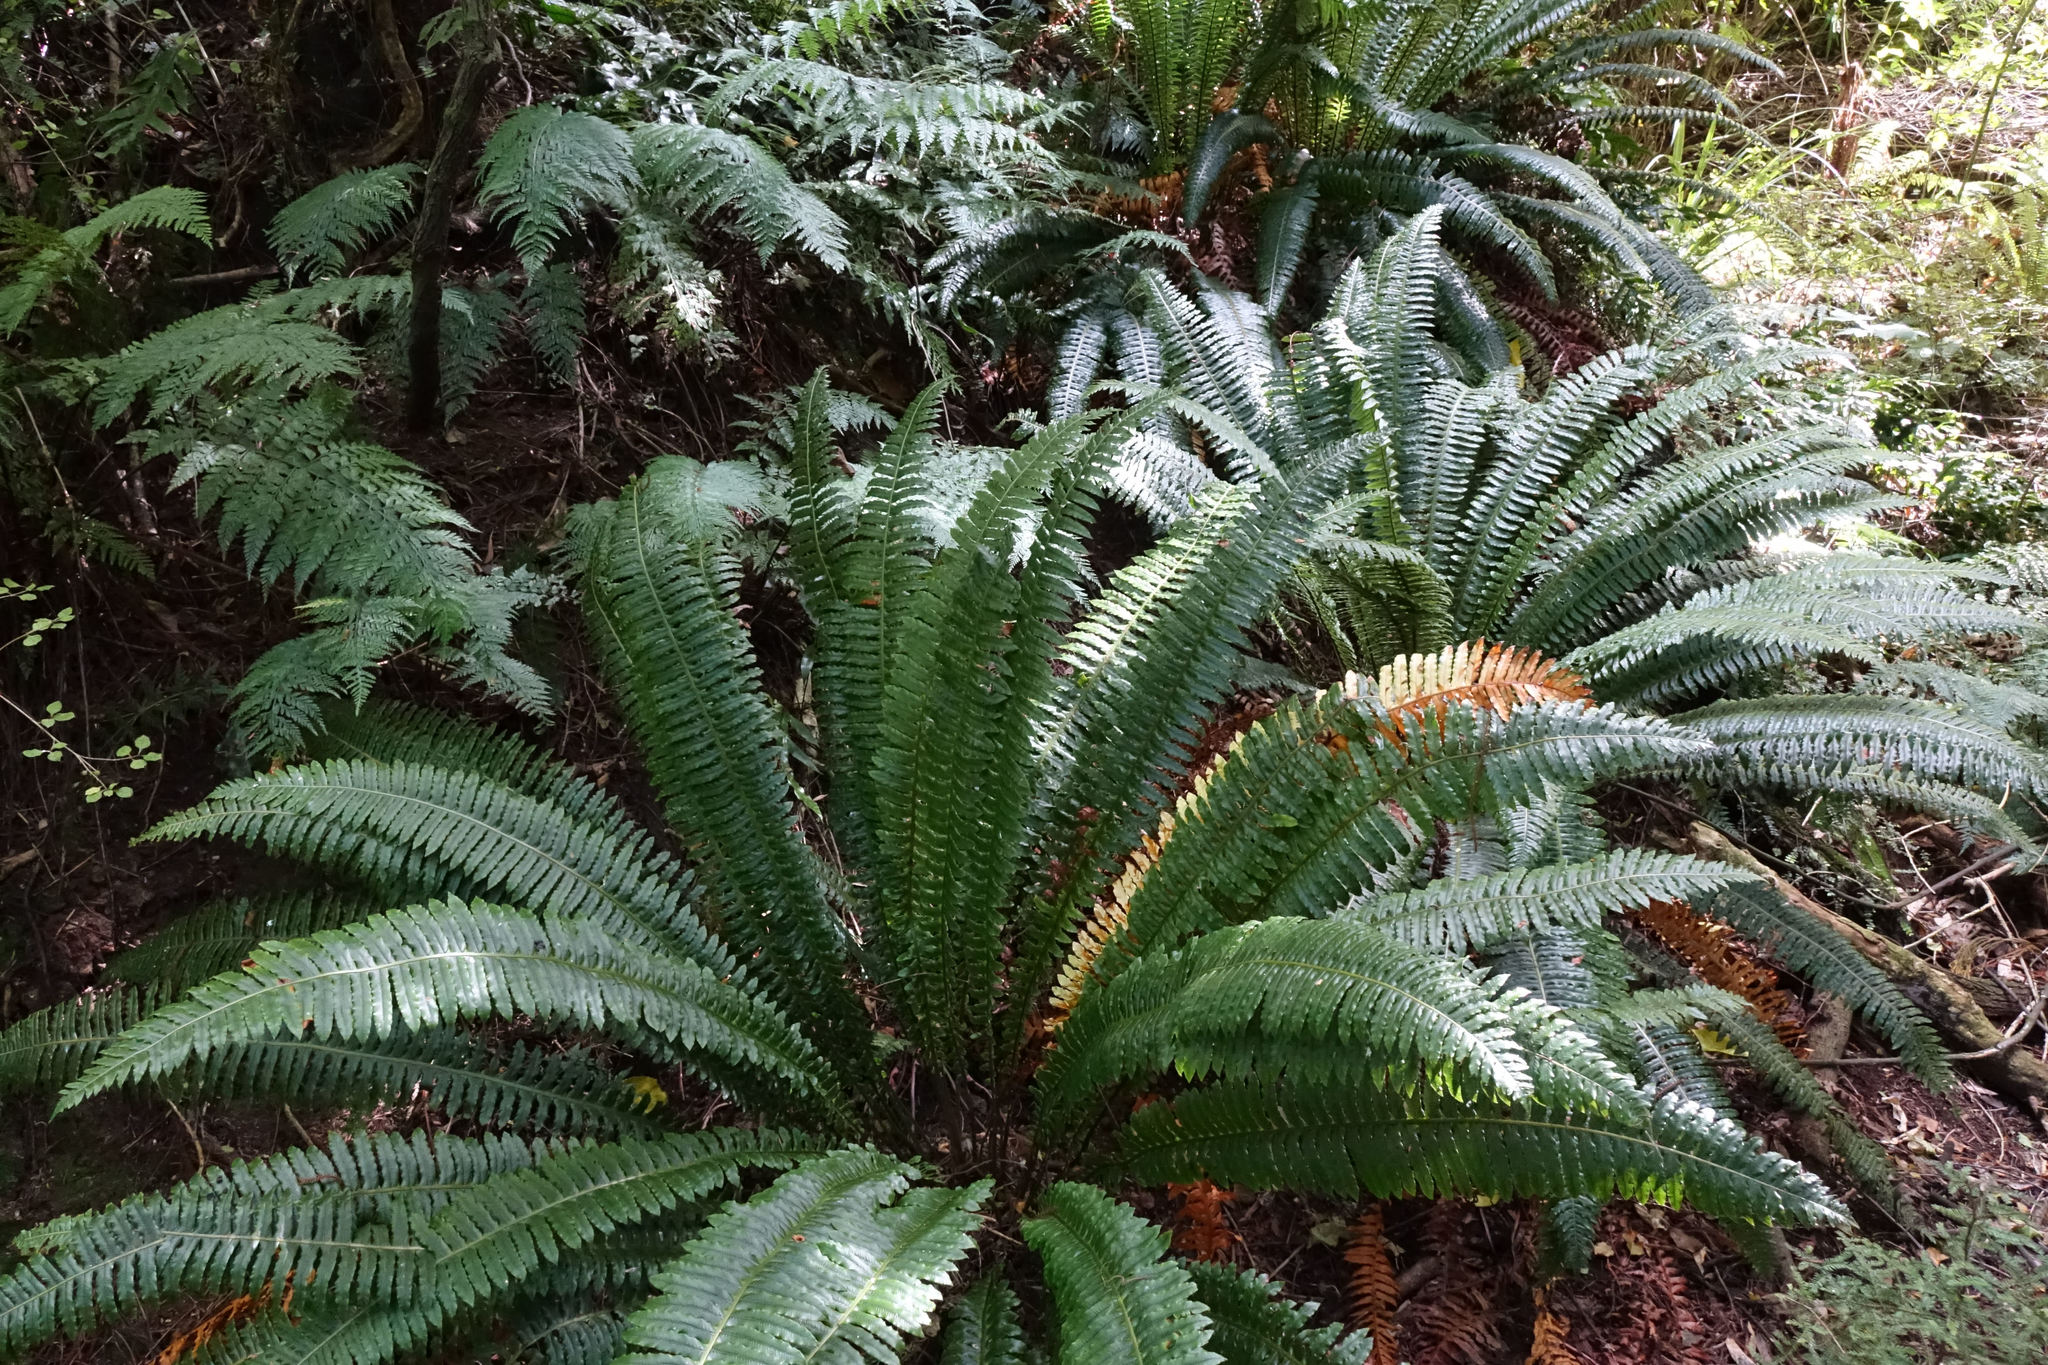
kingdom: Plantae
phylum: Tracheophyta
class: Polypodiopsida
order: Polypodiales
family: Blechnaceae
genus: Lomaria
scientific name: Lomaria discolor
